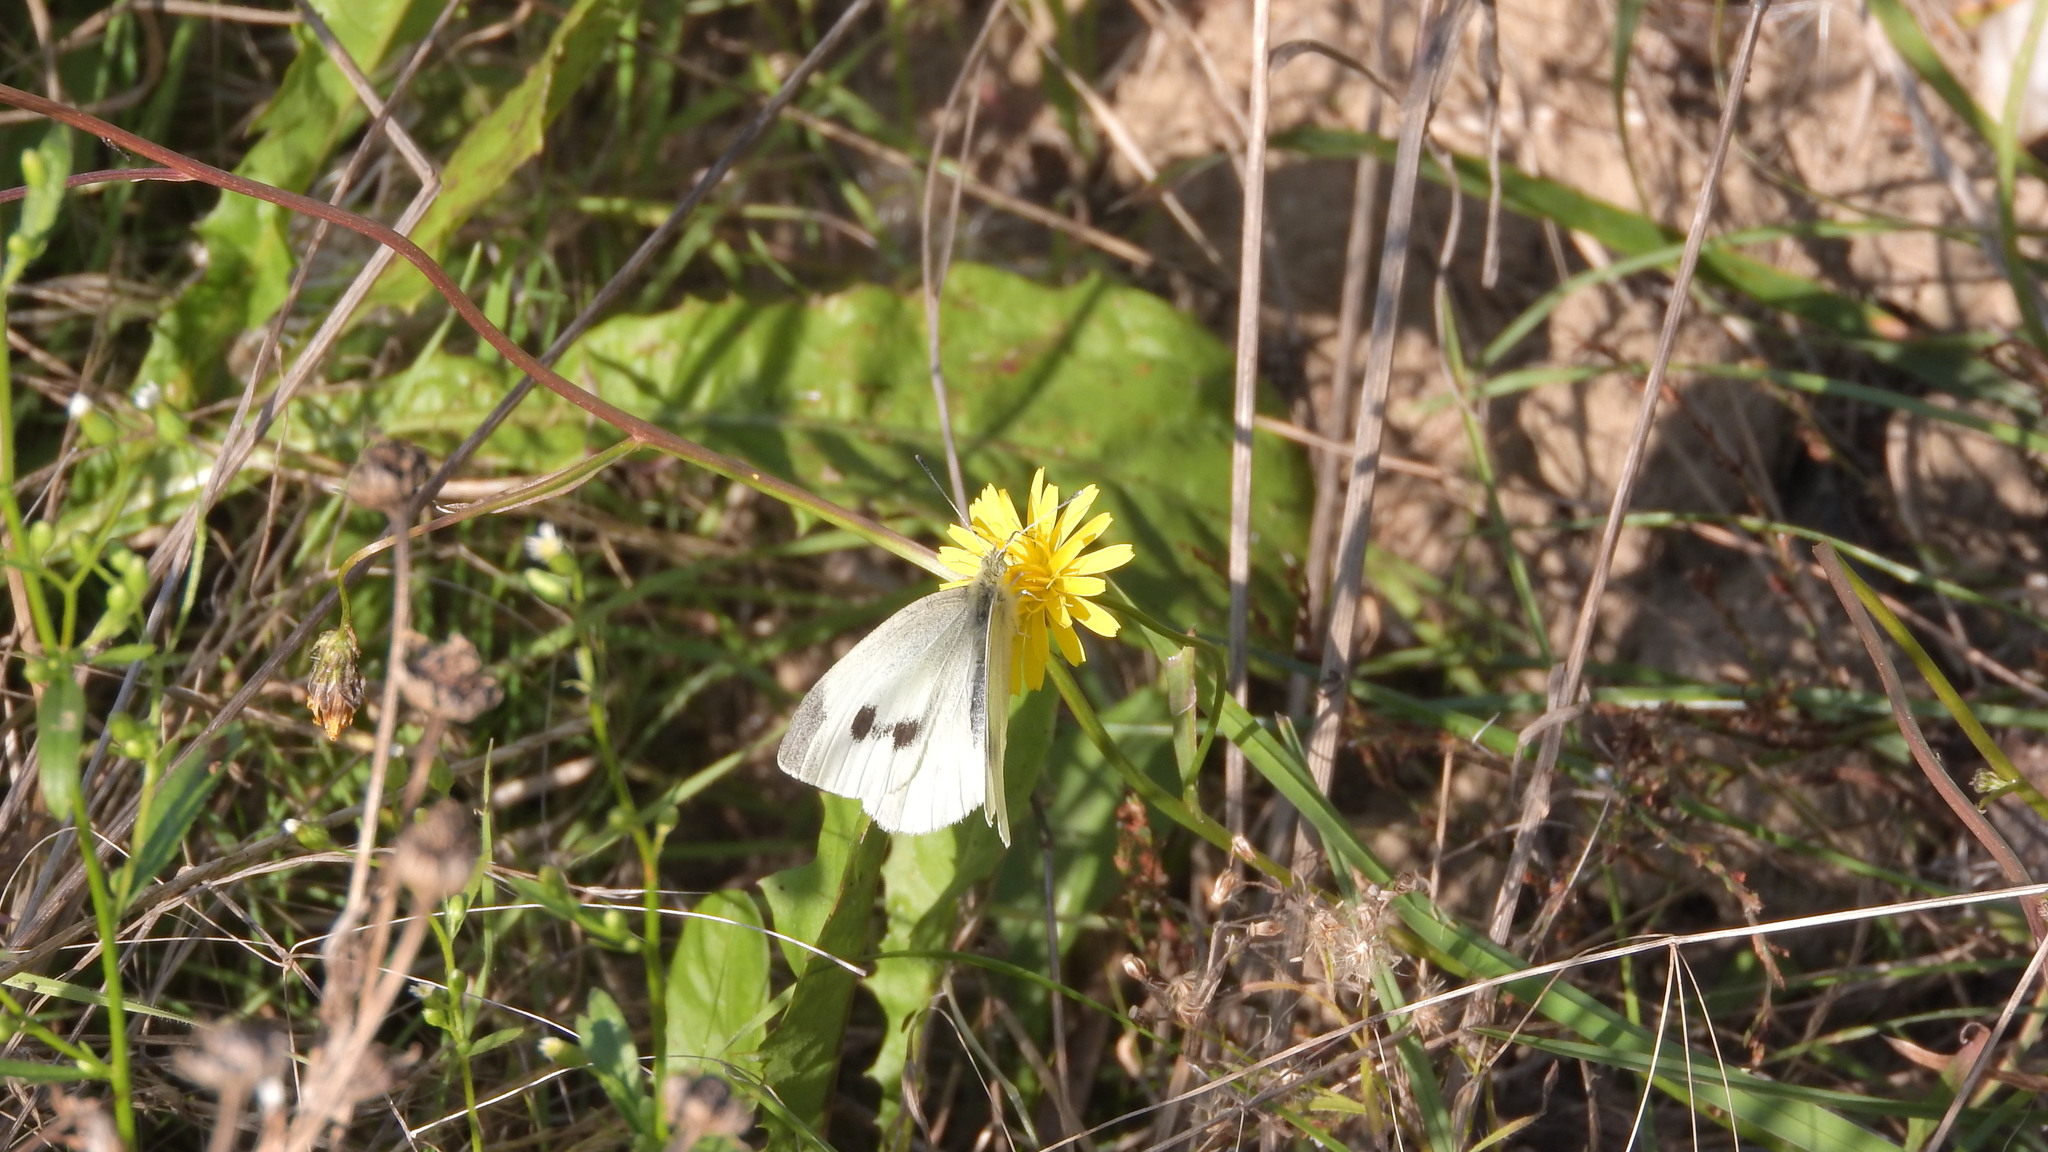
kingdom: Animalia
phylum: Arthropoda
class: Insecta
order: Lepidoptera
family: Pieridae
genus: Pieris
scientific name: Pieris rapae
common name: Small white
